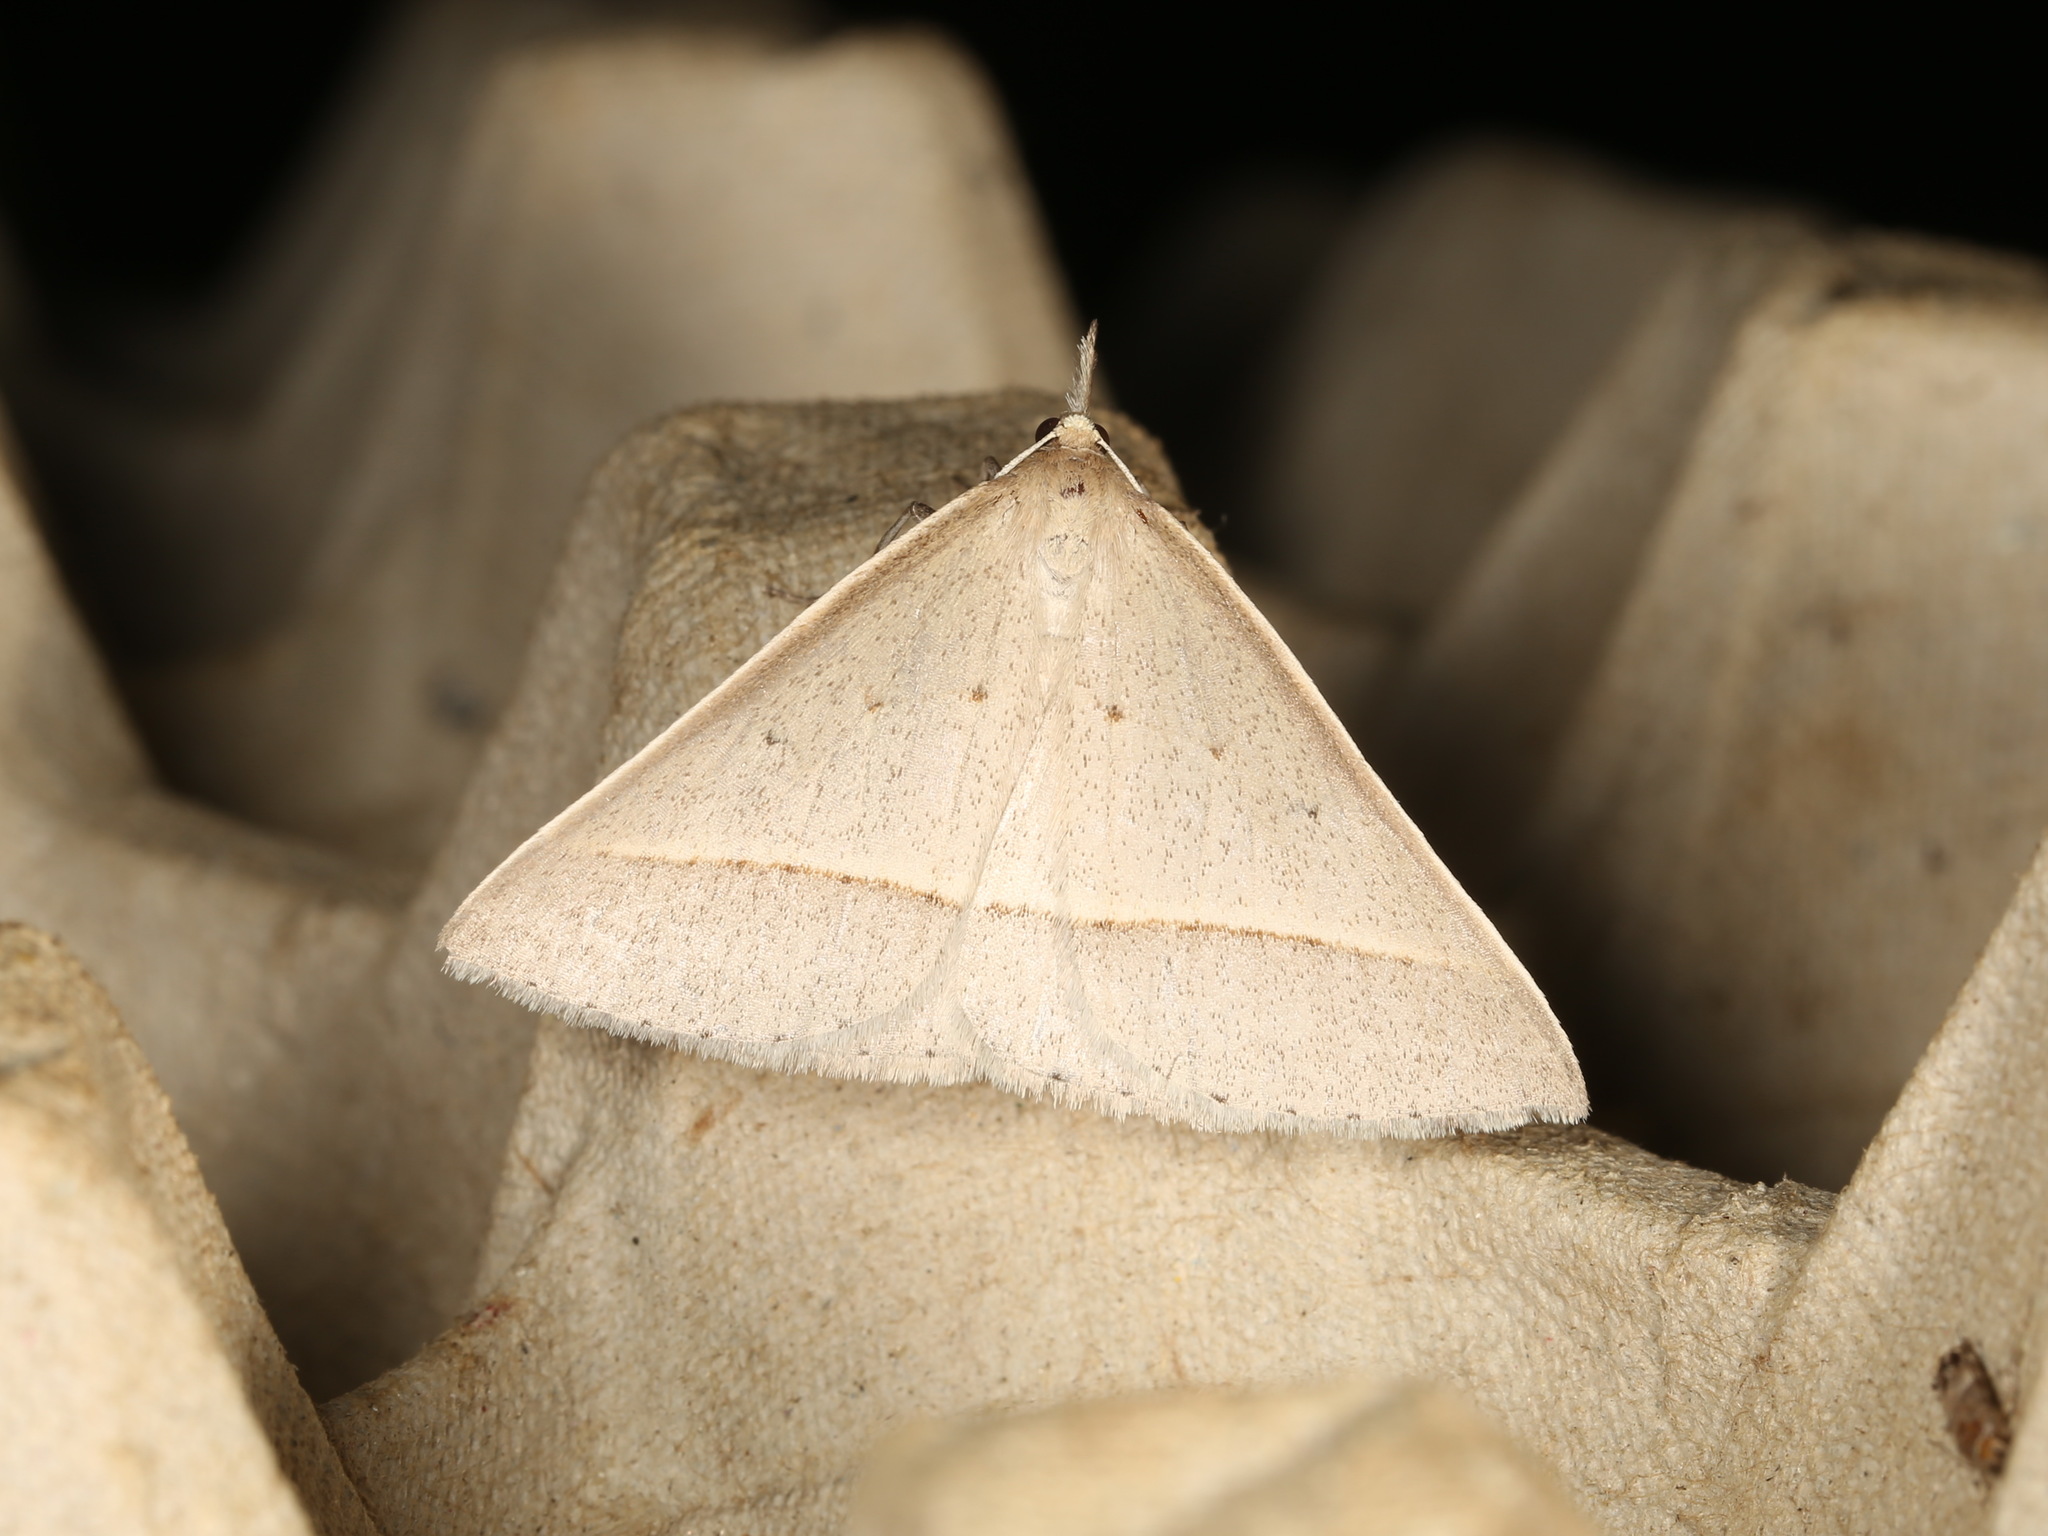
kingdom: Animalia
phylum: Arthropoda
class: Insecta
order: Lepidoptera
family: Geometridae
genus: Epidesmia
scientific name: Epidesmia perfabricata
